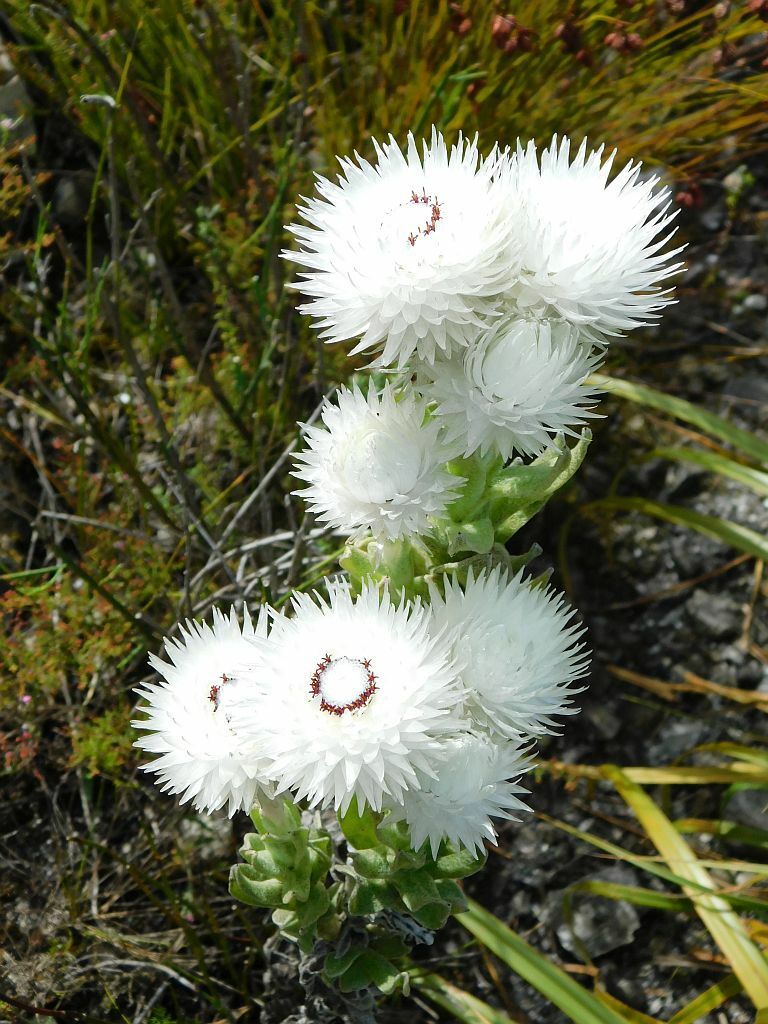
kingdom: Plantae
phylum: Tracheophyta
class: Magnoliopsida
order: Asterales
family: Asteraceae
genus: Syncarpha
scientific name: Syncarpha vestita
